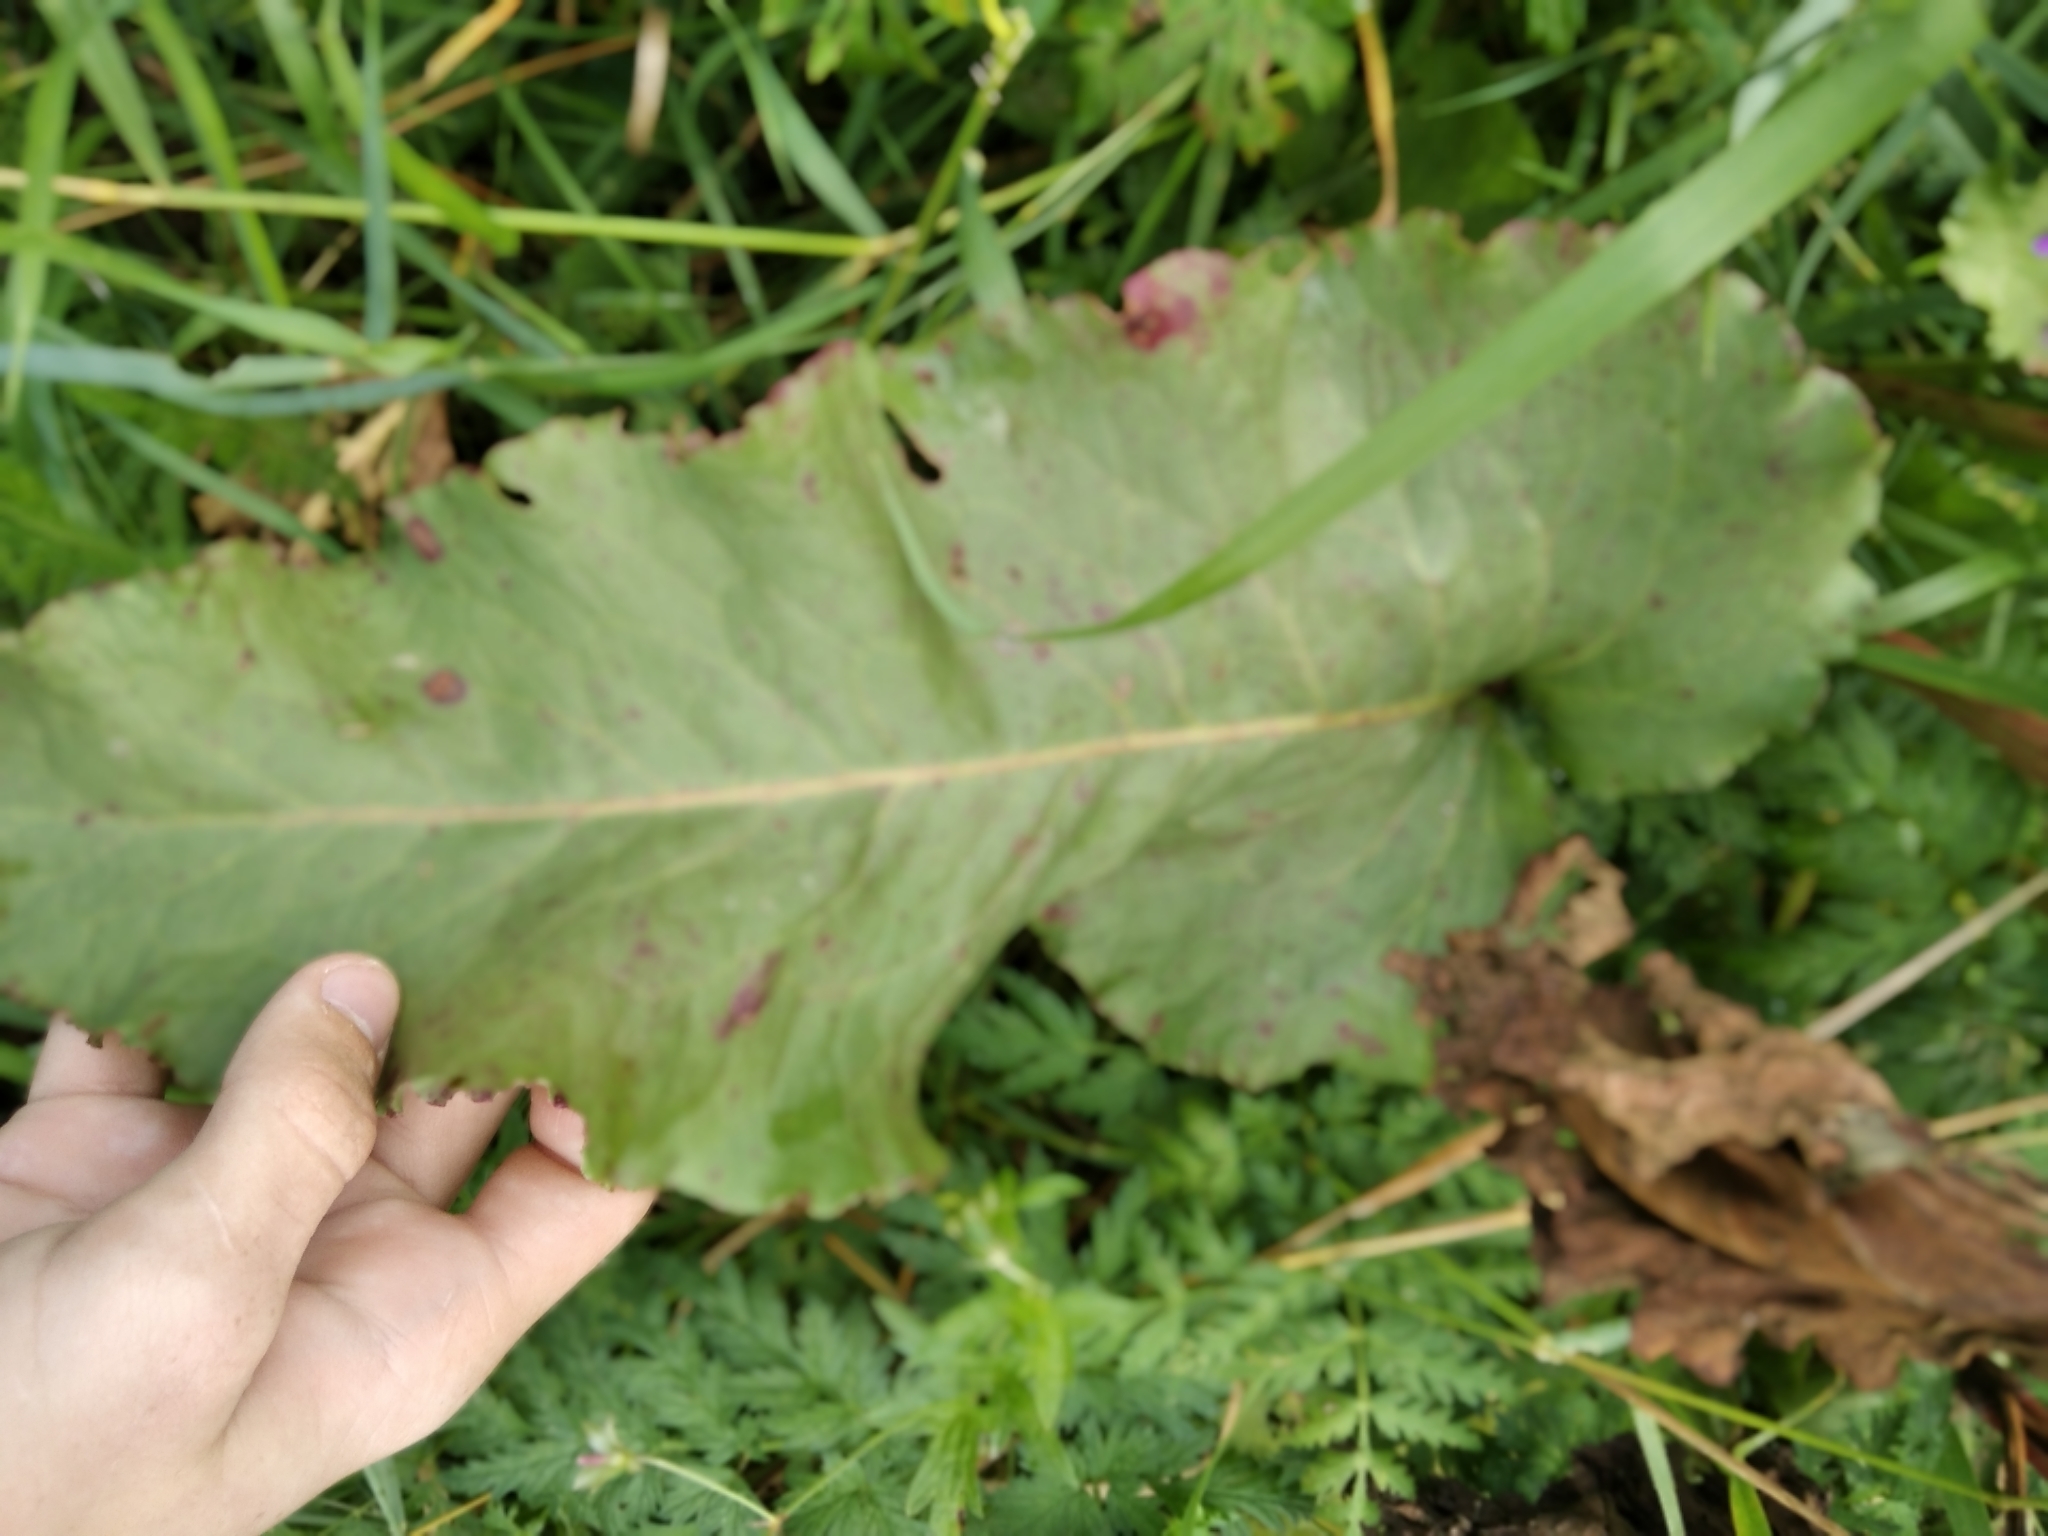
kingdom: Plantae
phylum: Tracheophyta
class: Magnoliopsida
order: Caryophyllales
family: Polygonaceae
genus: Rumex
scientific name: Rumex confertus
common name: Russian dock
